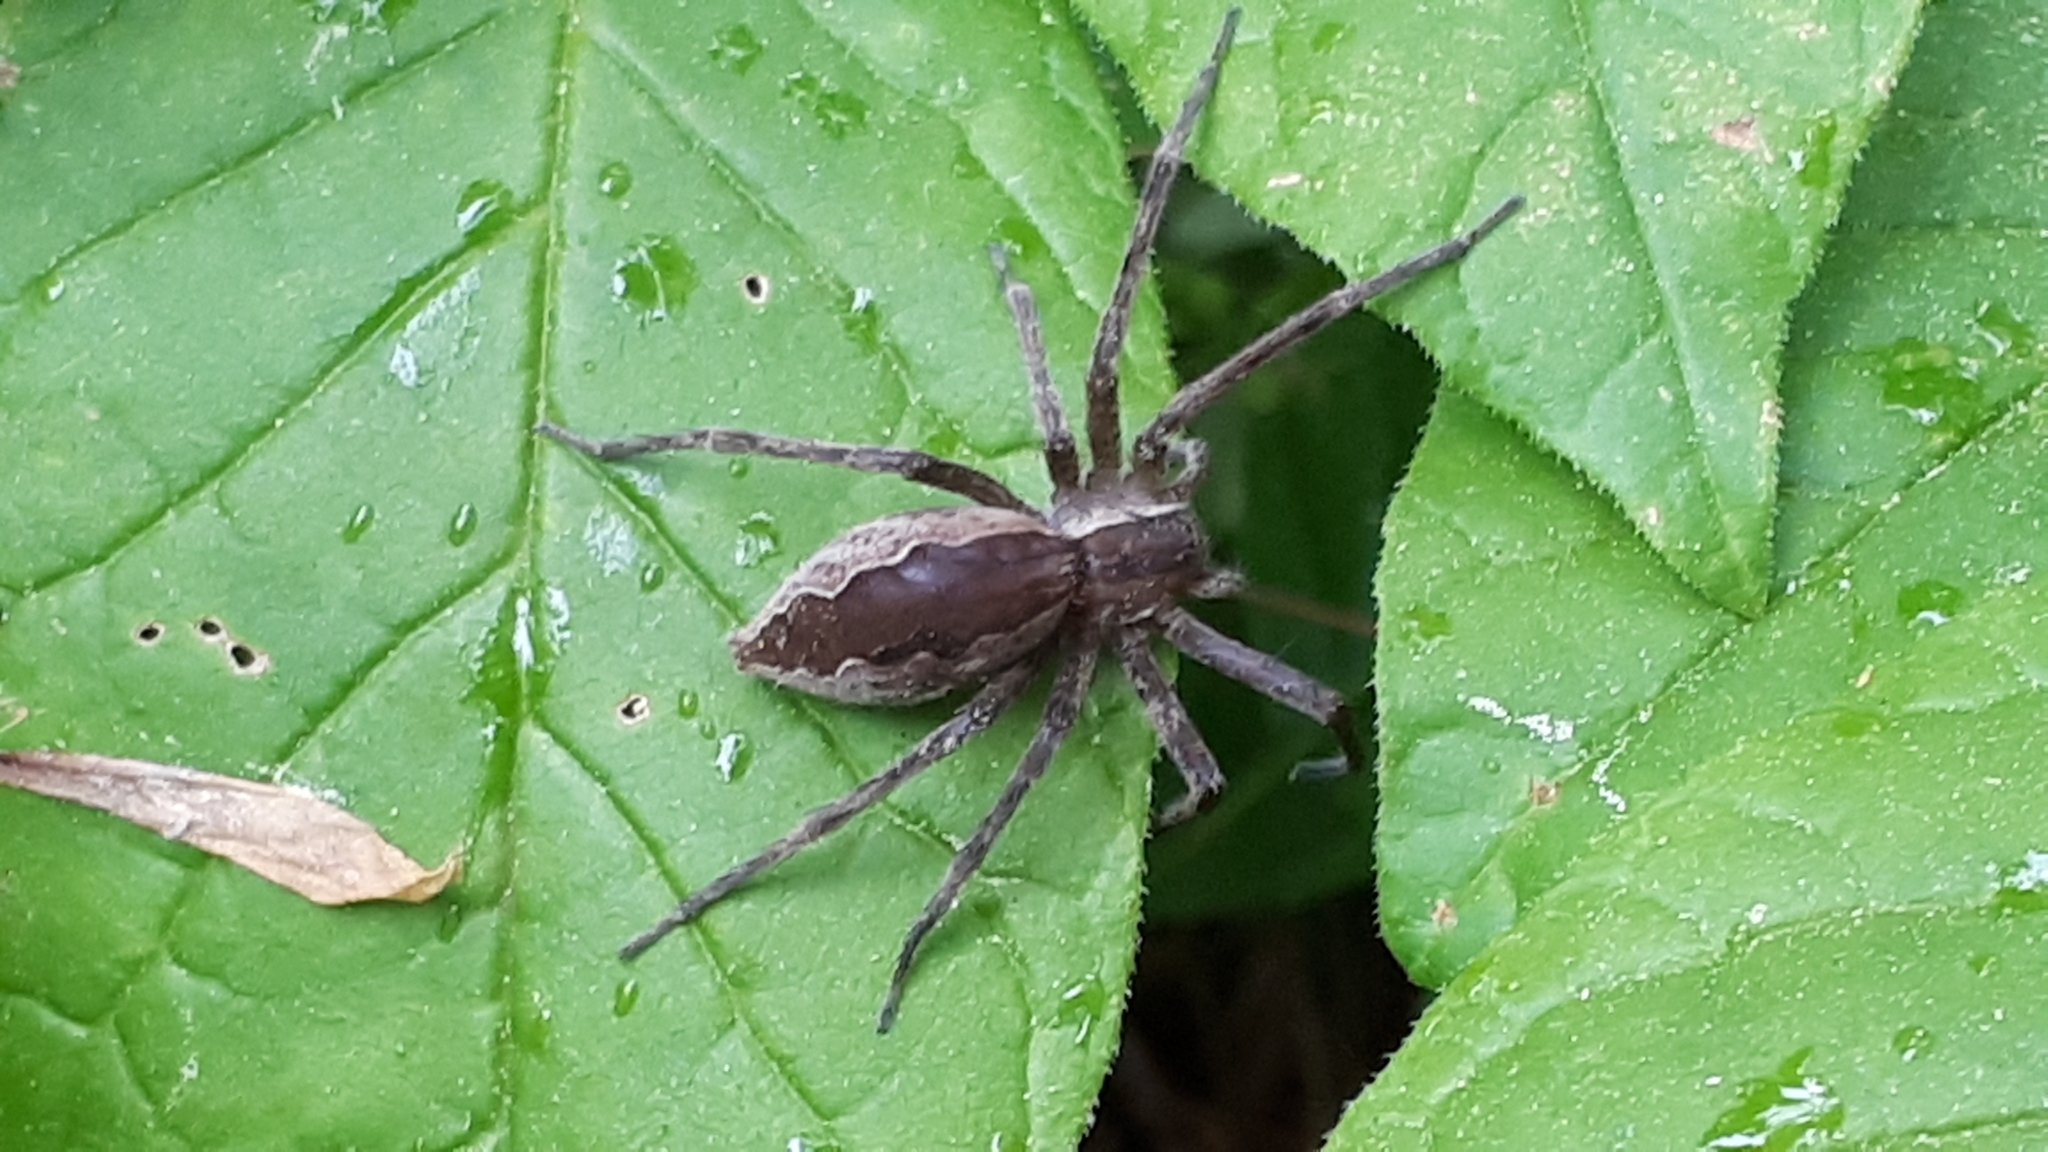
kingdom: Animalia
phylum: Arthropoda
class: Arachnida
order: Araneae
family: Pisauridae
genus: Pisaurina
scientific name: Pisaurina mira
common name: American nursery web spider
